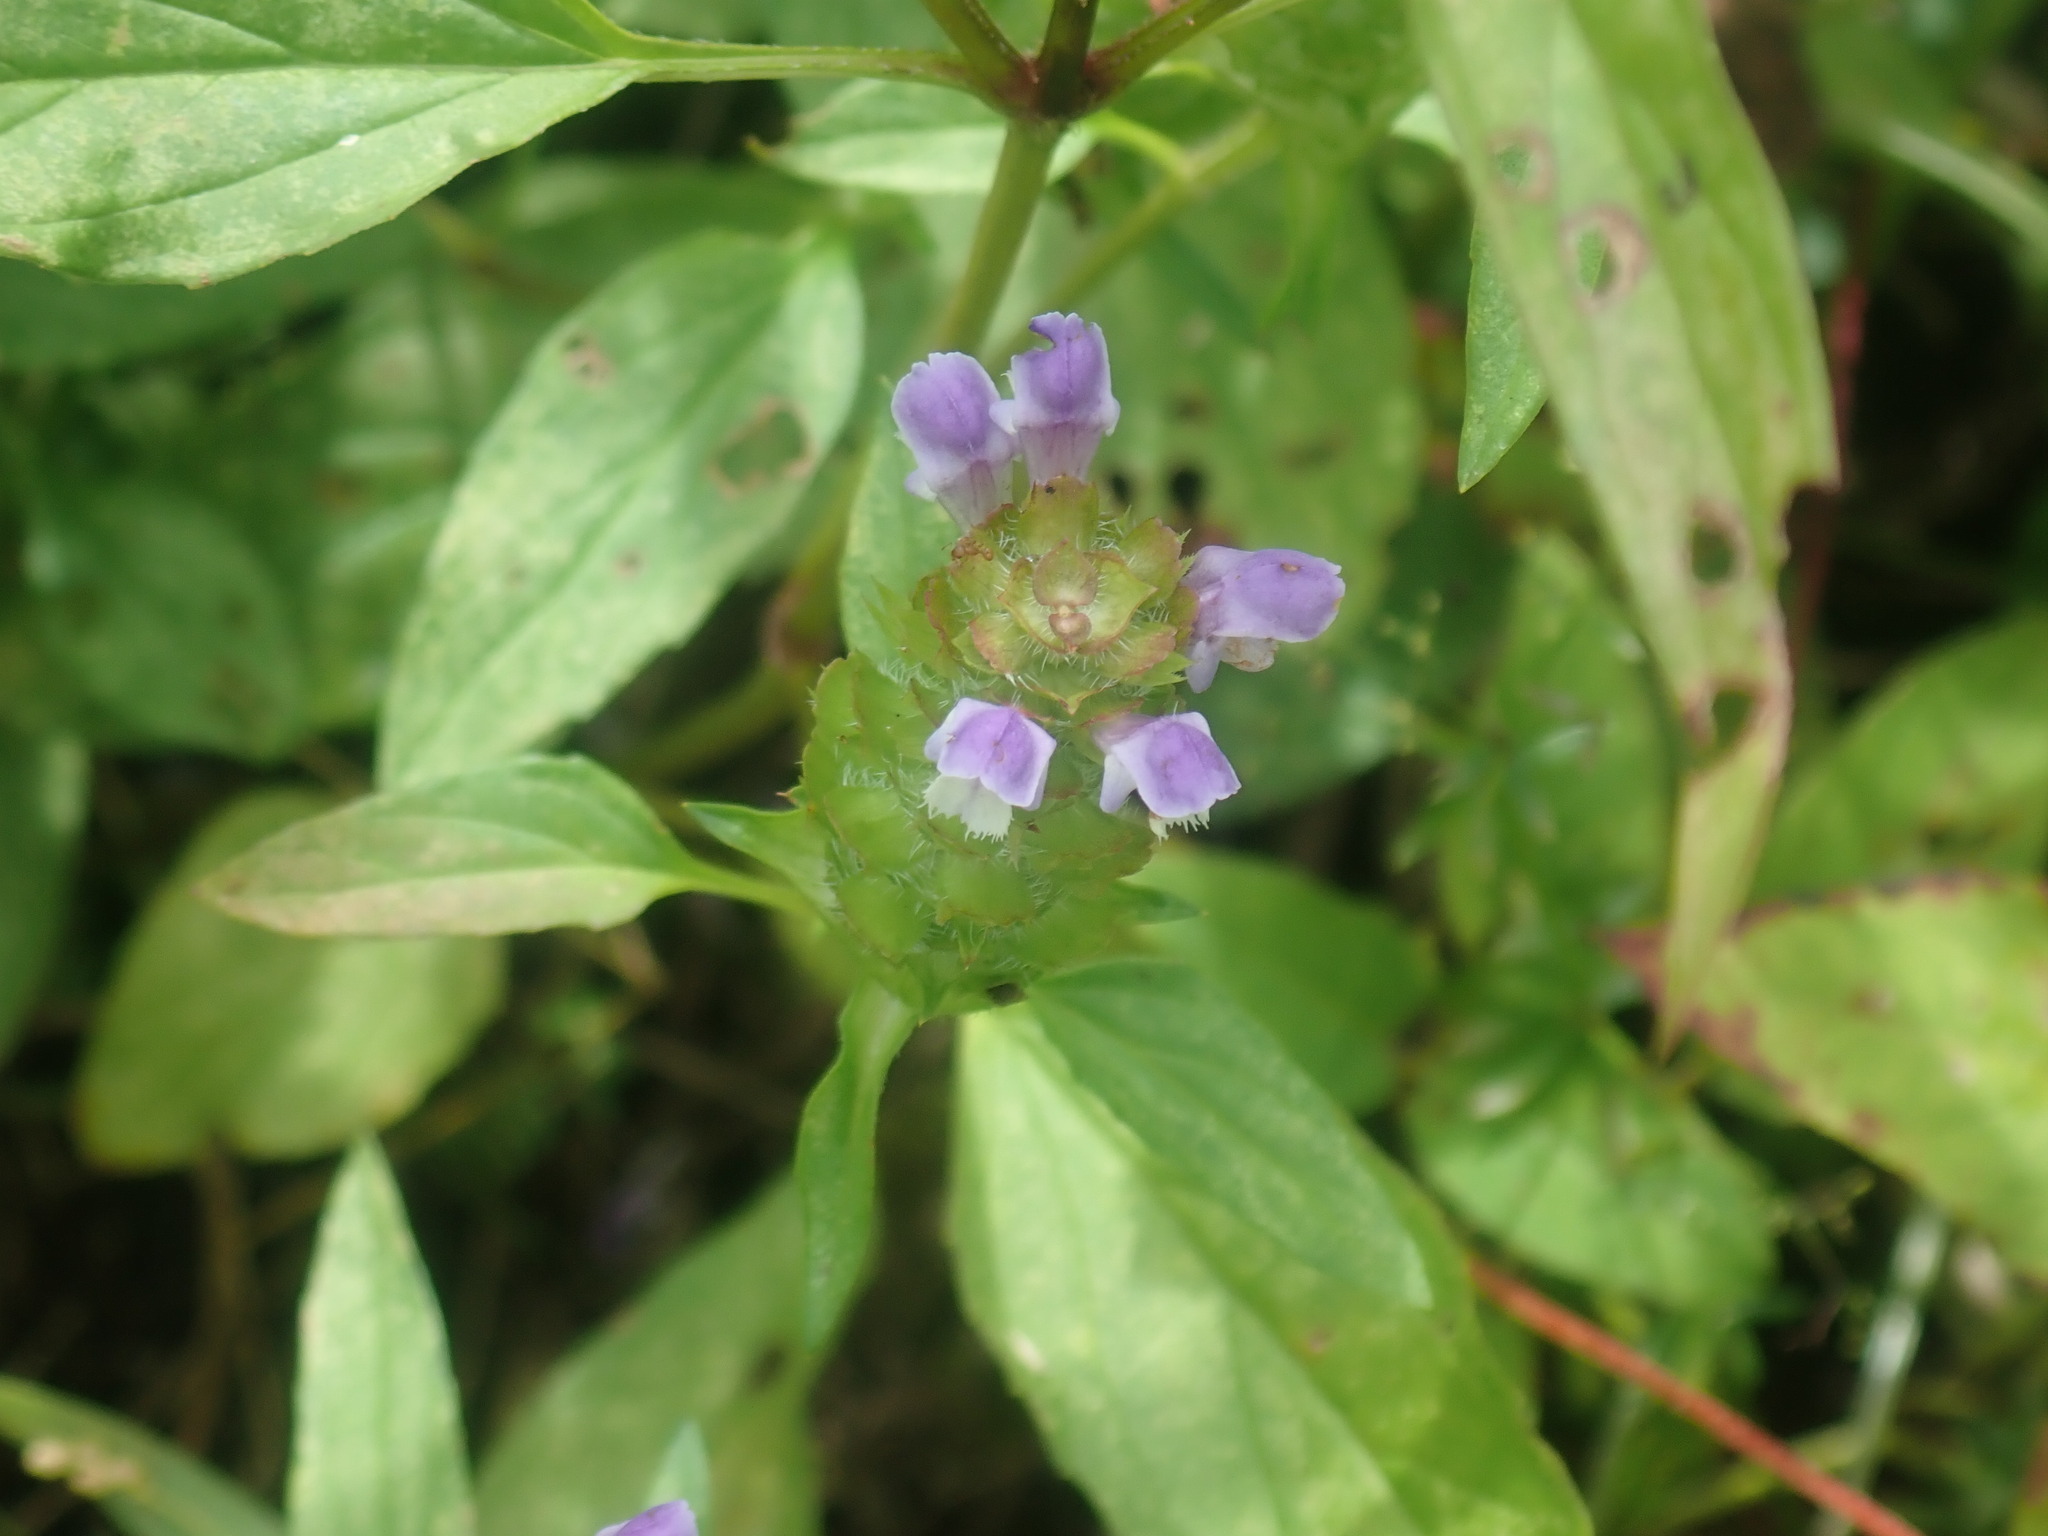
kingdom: Plantae
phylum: Tracheophyta
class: Magnoliopsida
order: Lamiales
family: Lamiaceae
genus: Prunella
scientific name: Prunella vulgaris
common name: Heal-all
